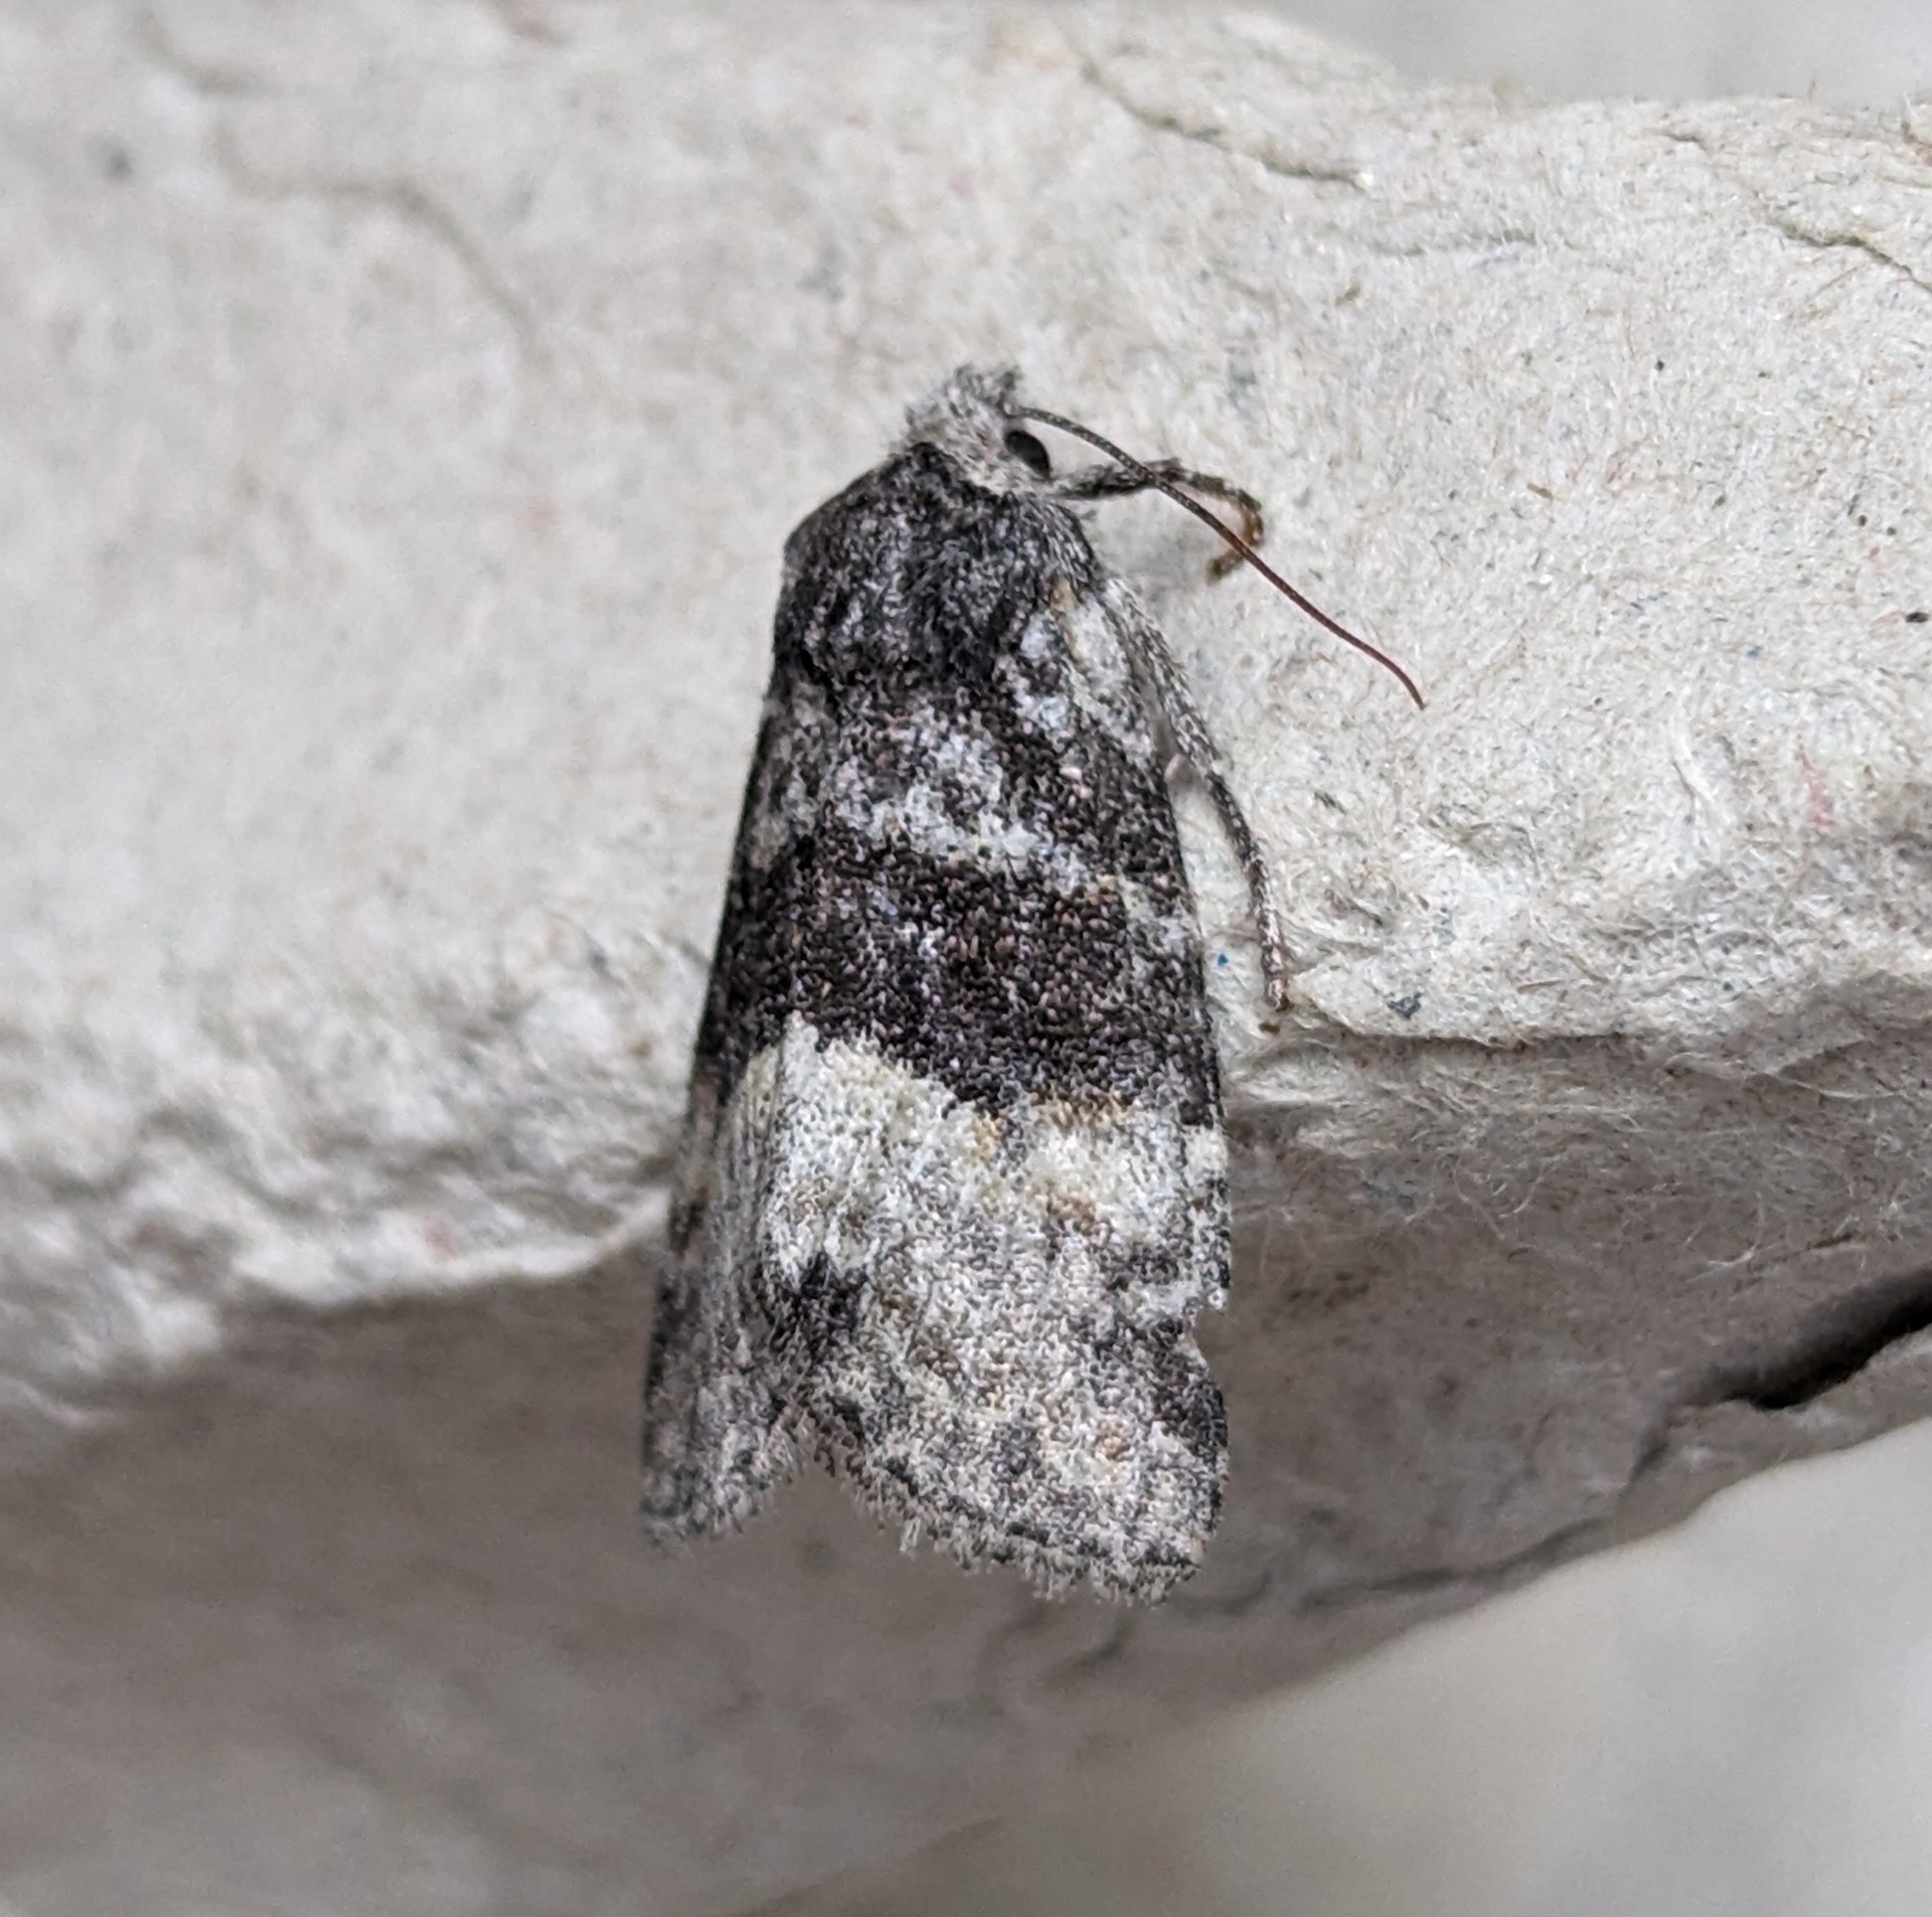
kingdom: Animalia
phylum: Arthropoda
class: Insecta
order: Lepidoptera
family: Noctuidae
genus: Brachylomia
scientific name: Brachylomia populi
